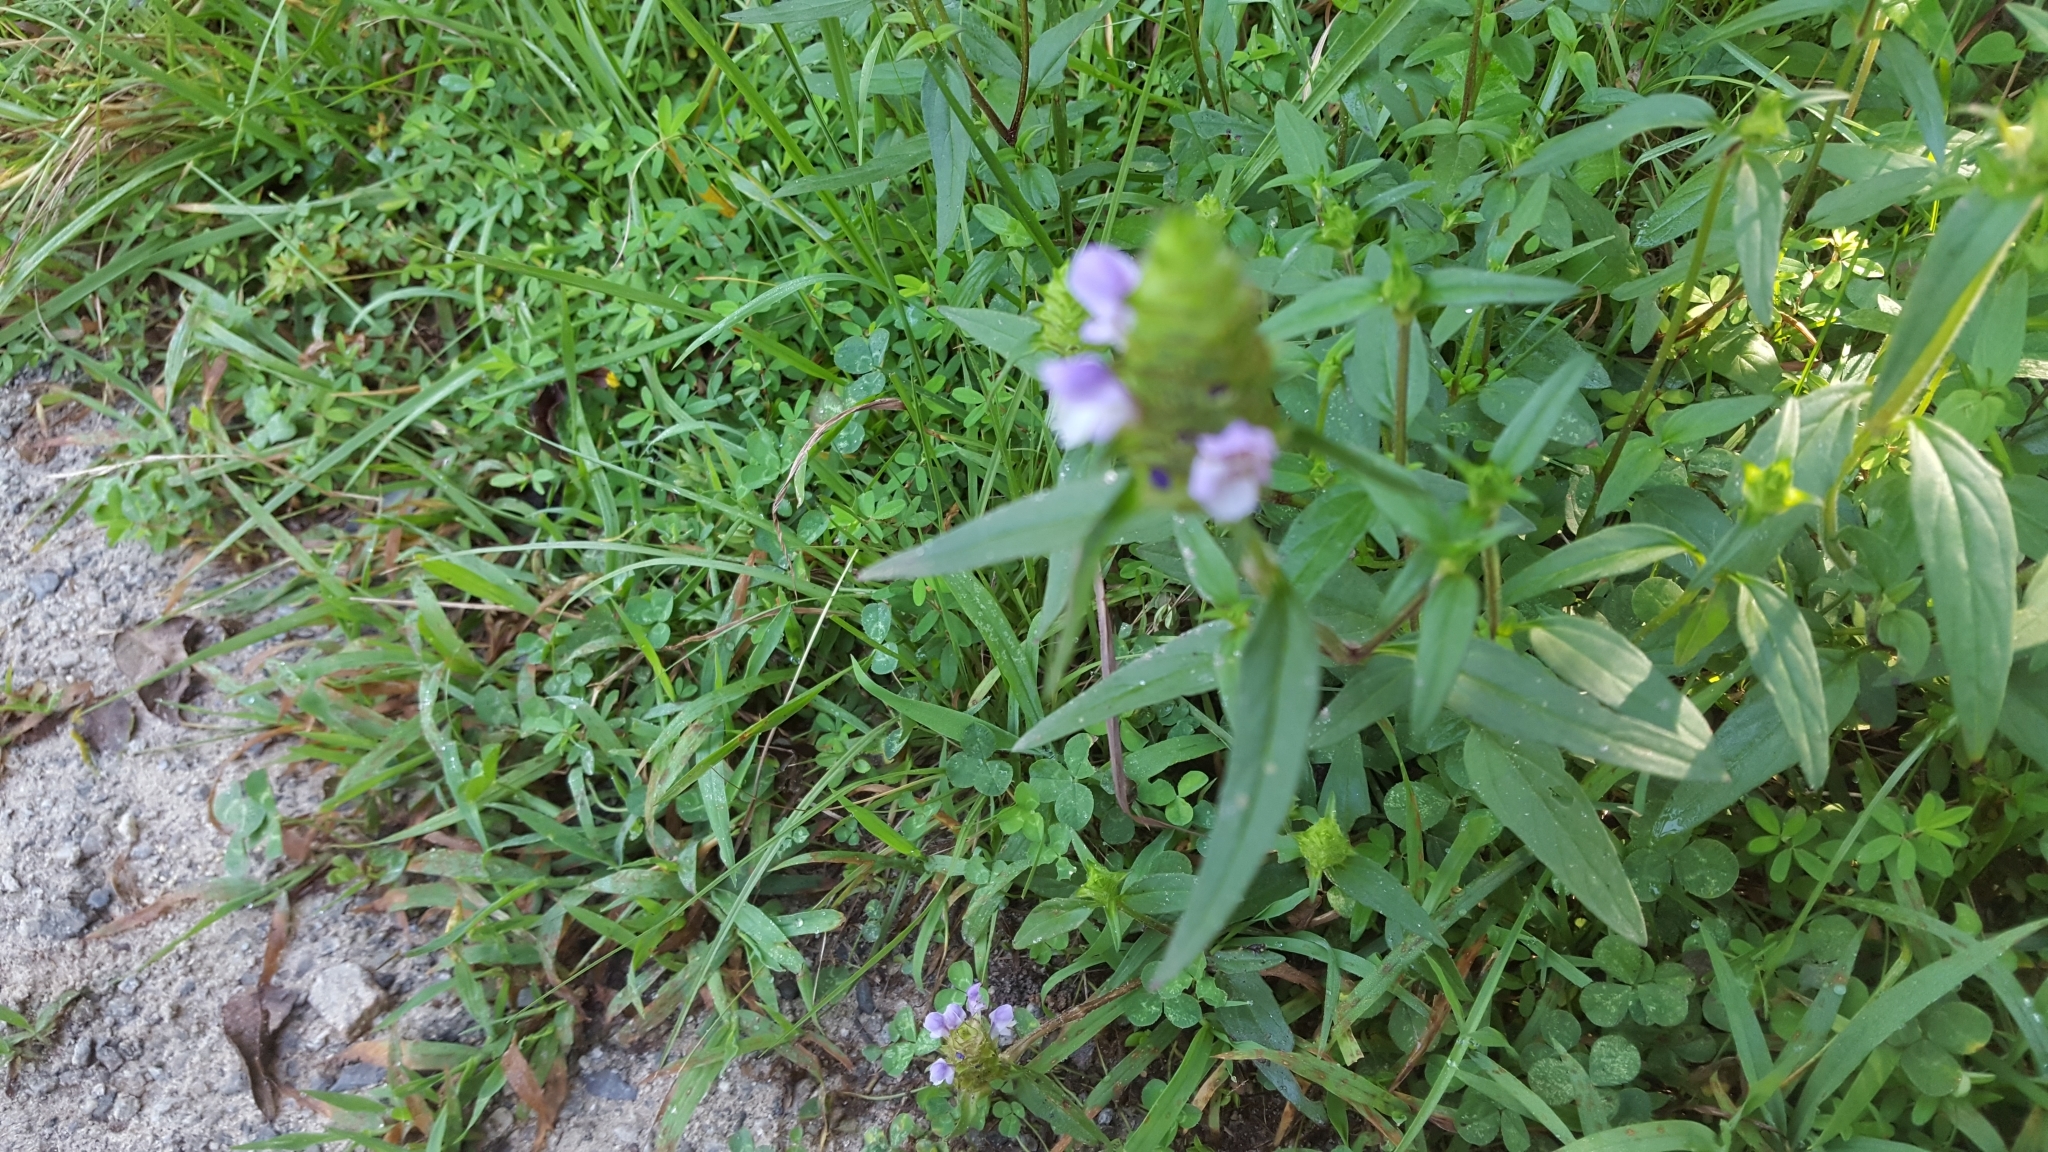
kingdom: Plantae
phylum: Tracheophyta
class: Magnoliopsida
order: Lamiales
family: Lamiaceae
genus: Prunella
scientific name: Prunella vulgaris
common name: Heal-all
